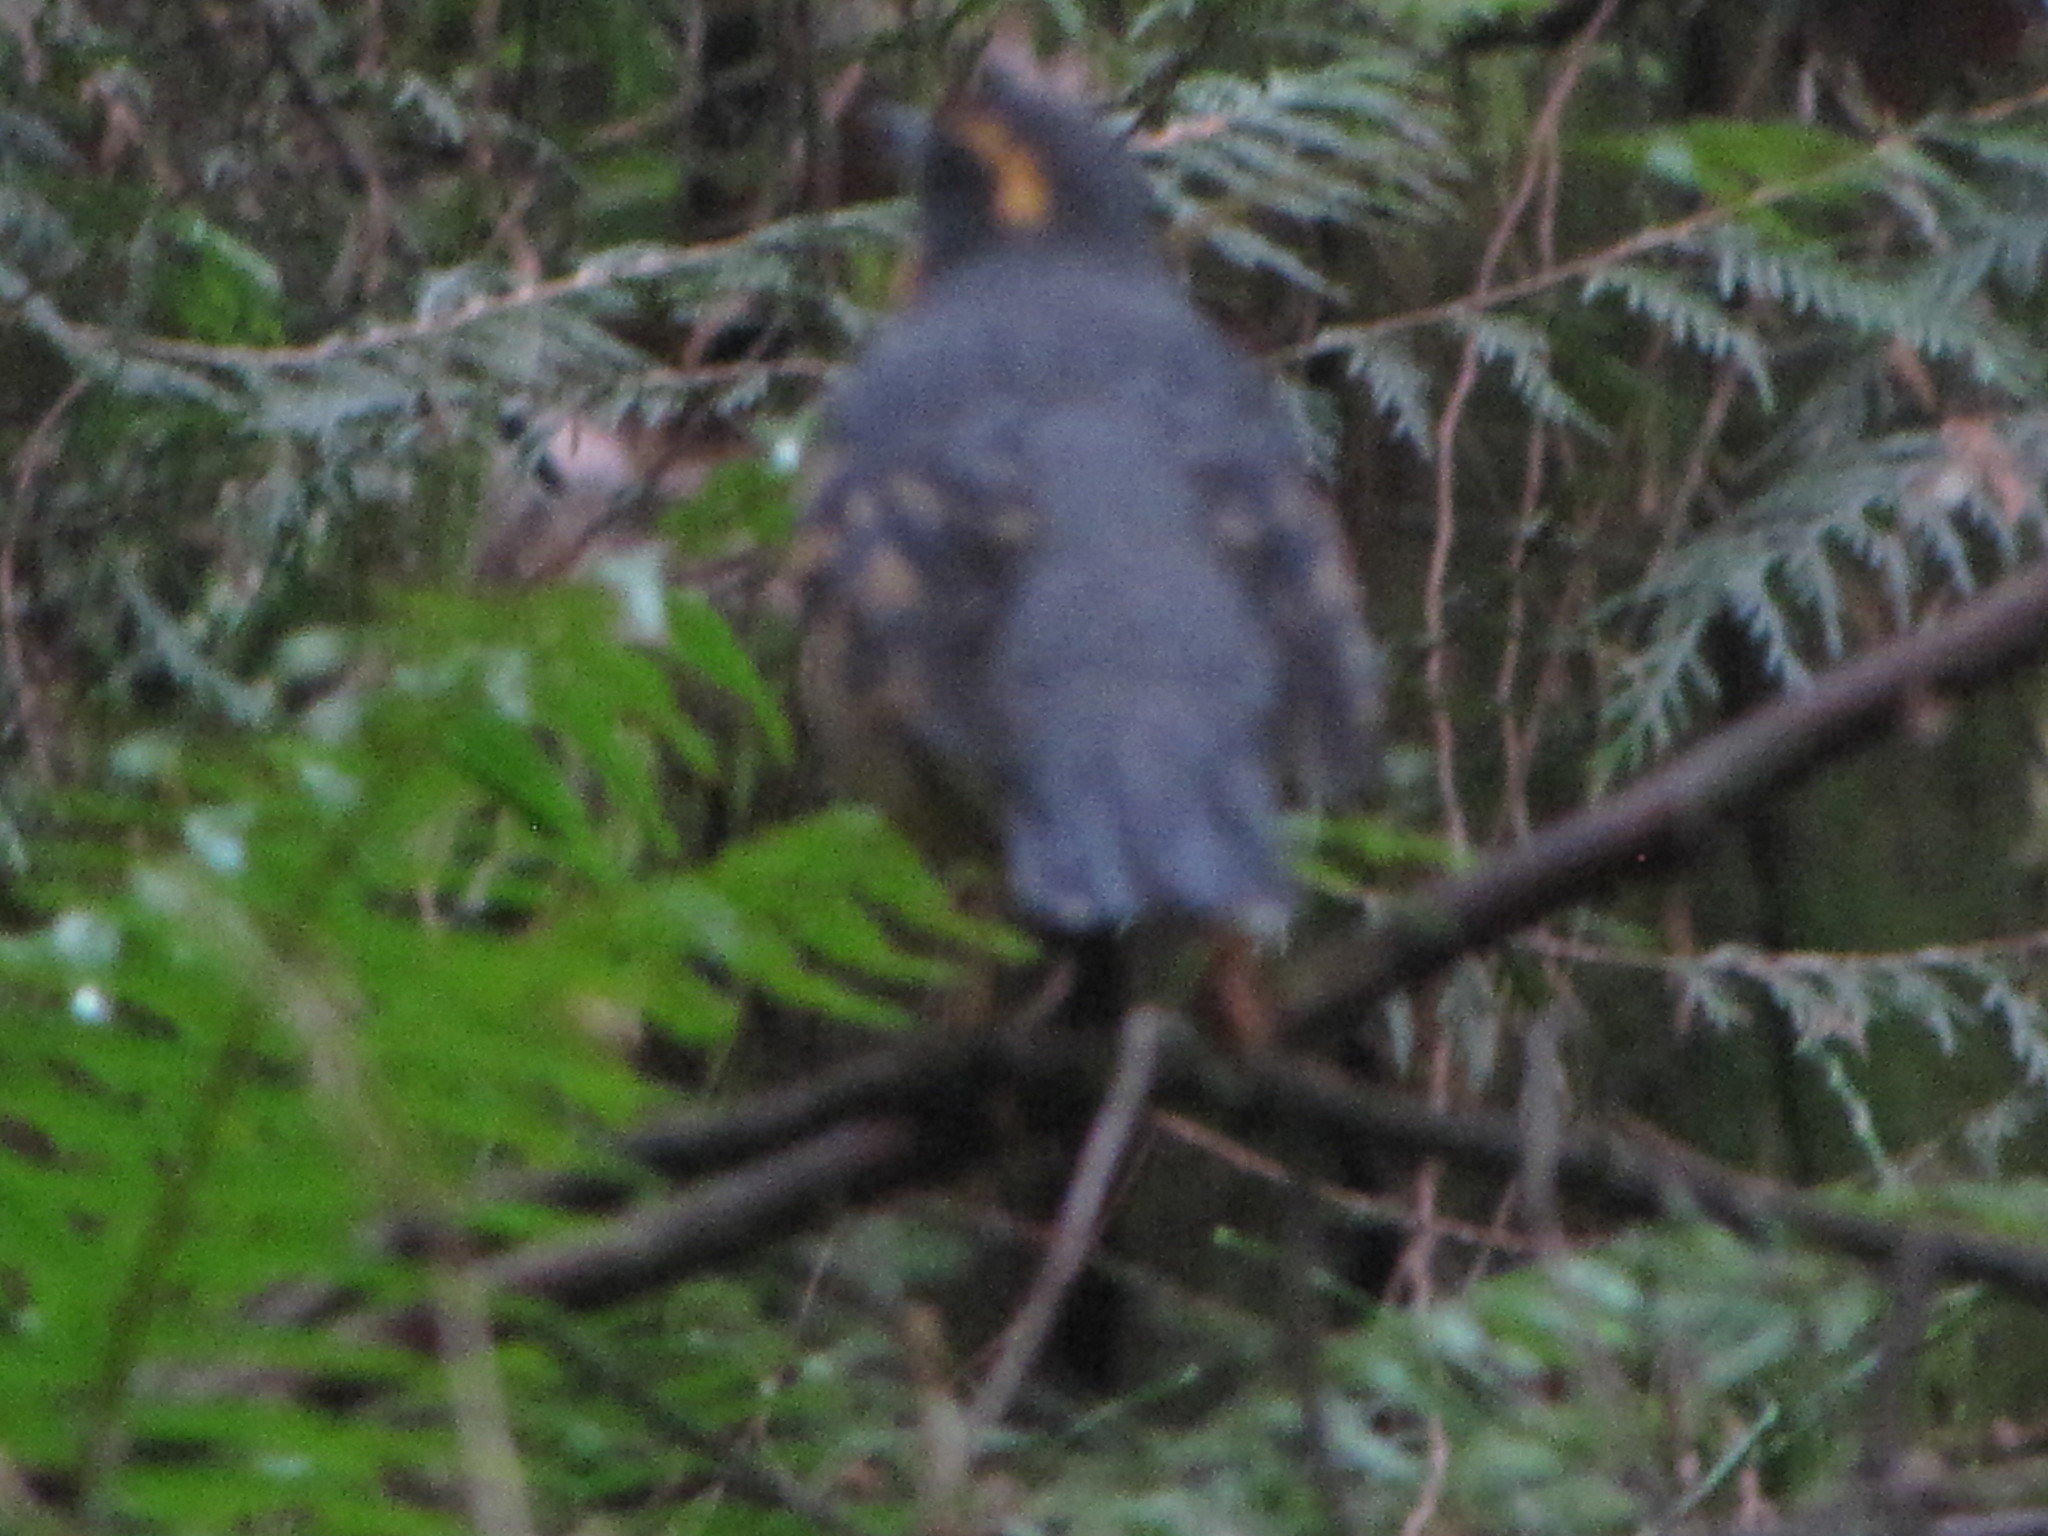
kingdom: Animalia
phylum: Chordata
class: Aves
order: Passeriformes
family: Turdidae
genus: Ixoreus
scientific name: Ixoreus naevius
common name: Varied thrush
